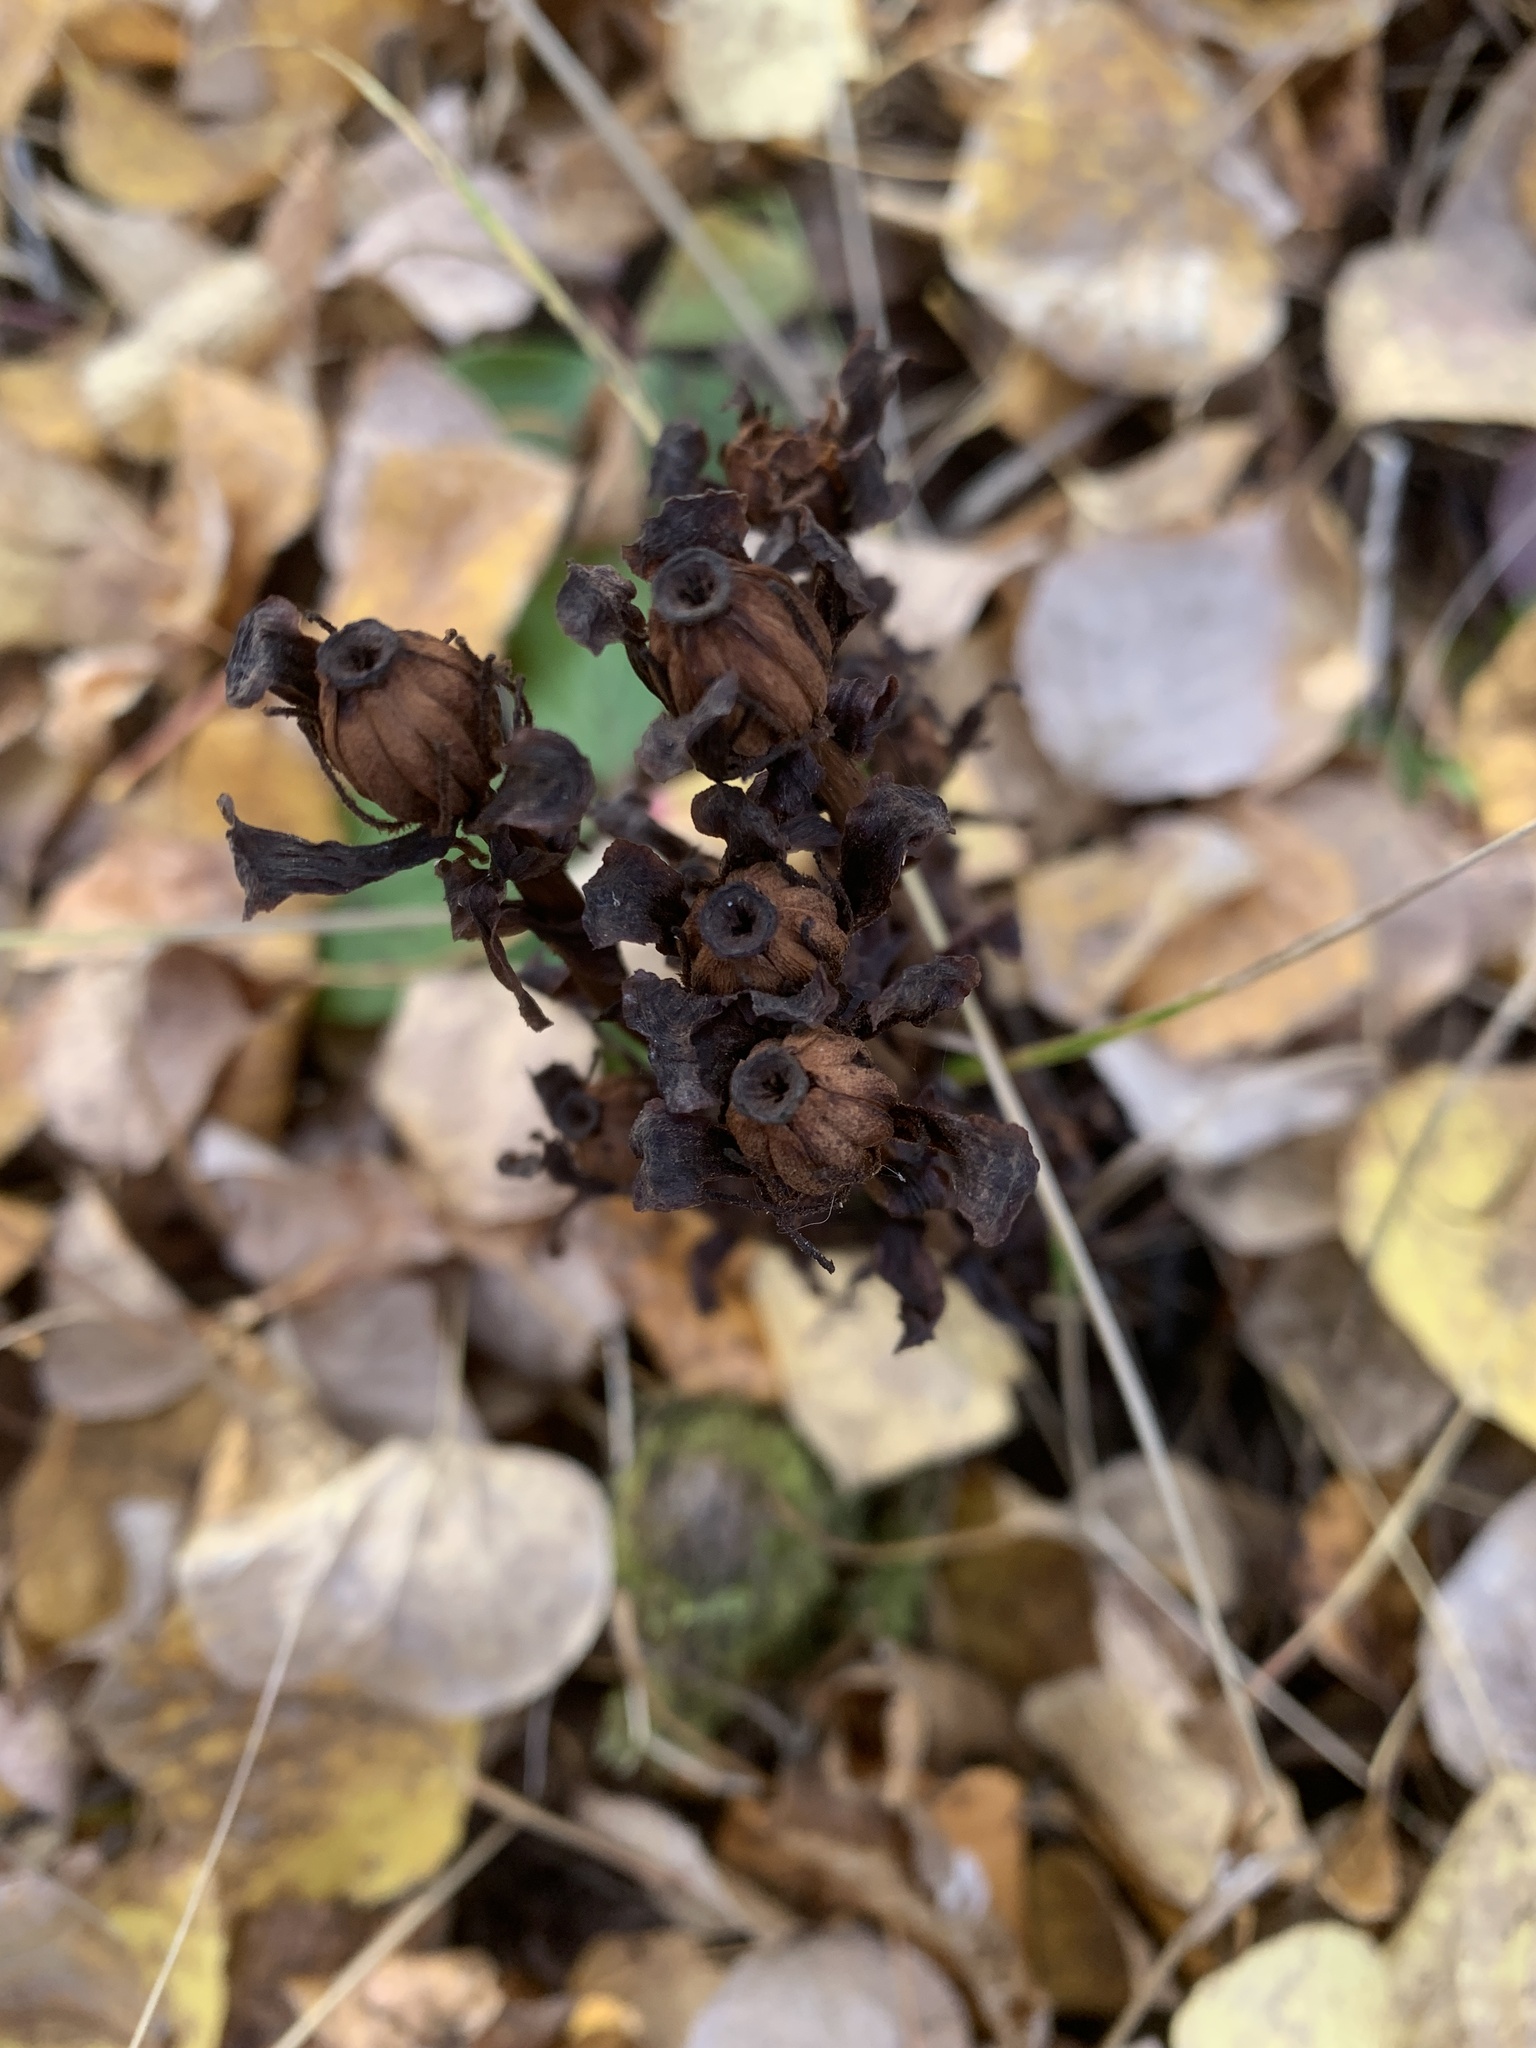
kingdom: Plantae
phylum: Tracheophyta
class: Magnoliopsida
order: Ericales
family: Ericaceae
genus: Monotropa
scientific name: Monotropa uniflora
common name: Convulsion root
